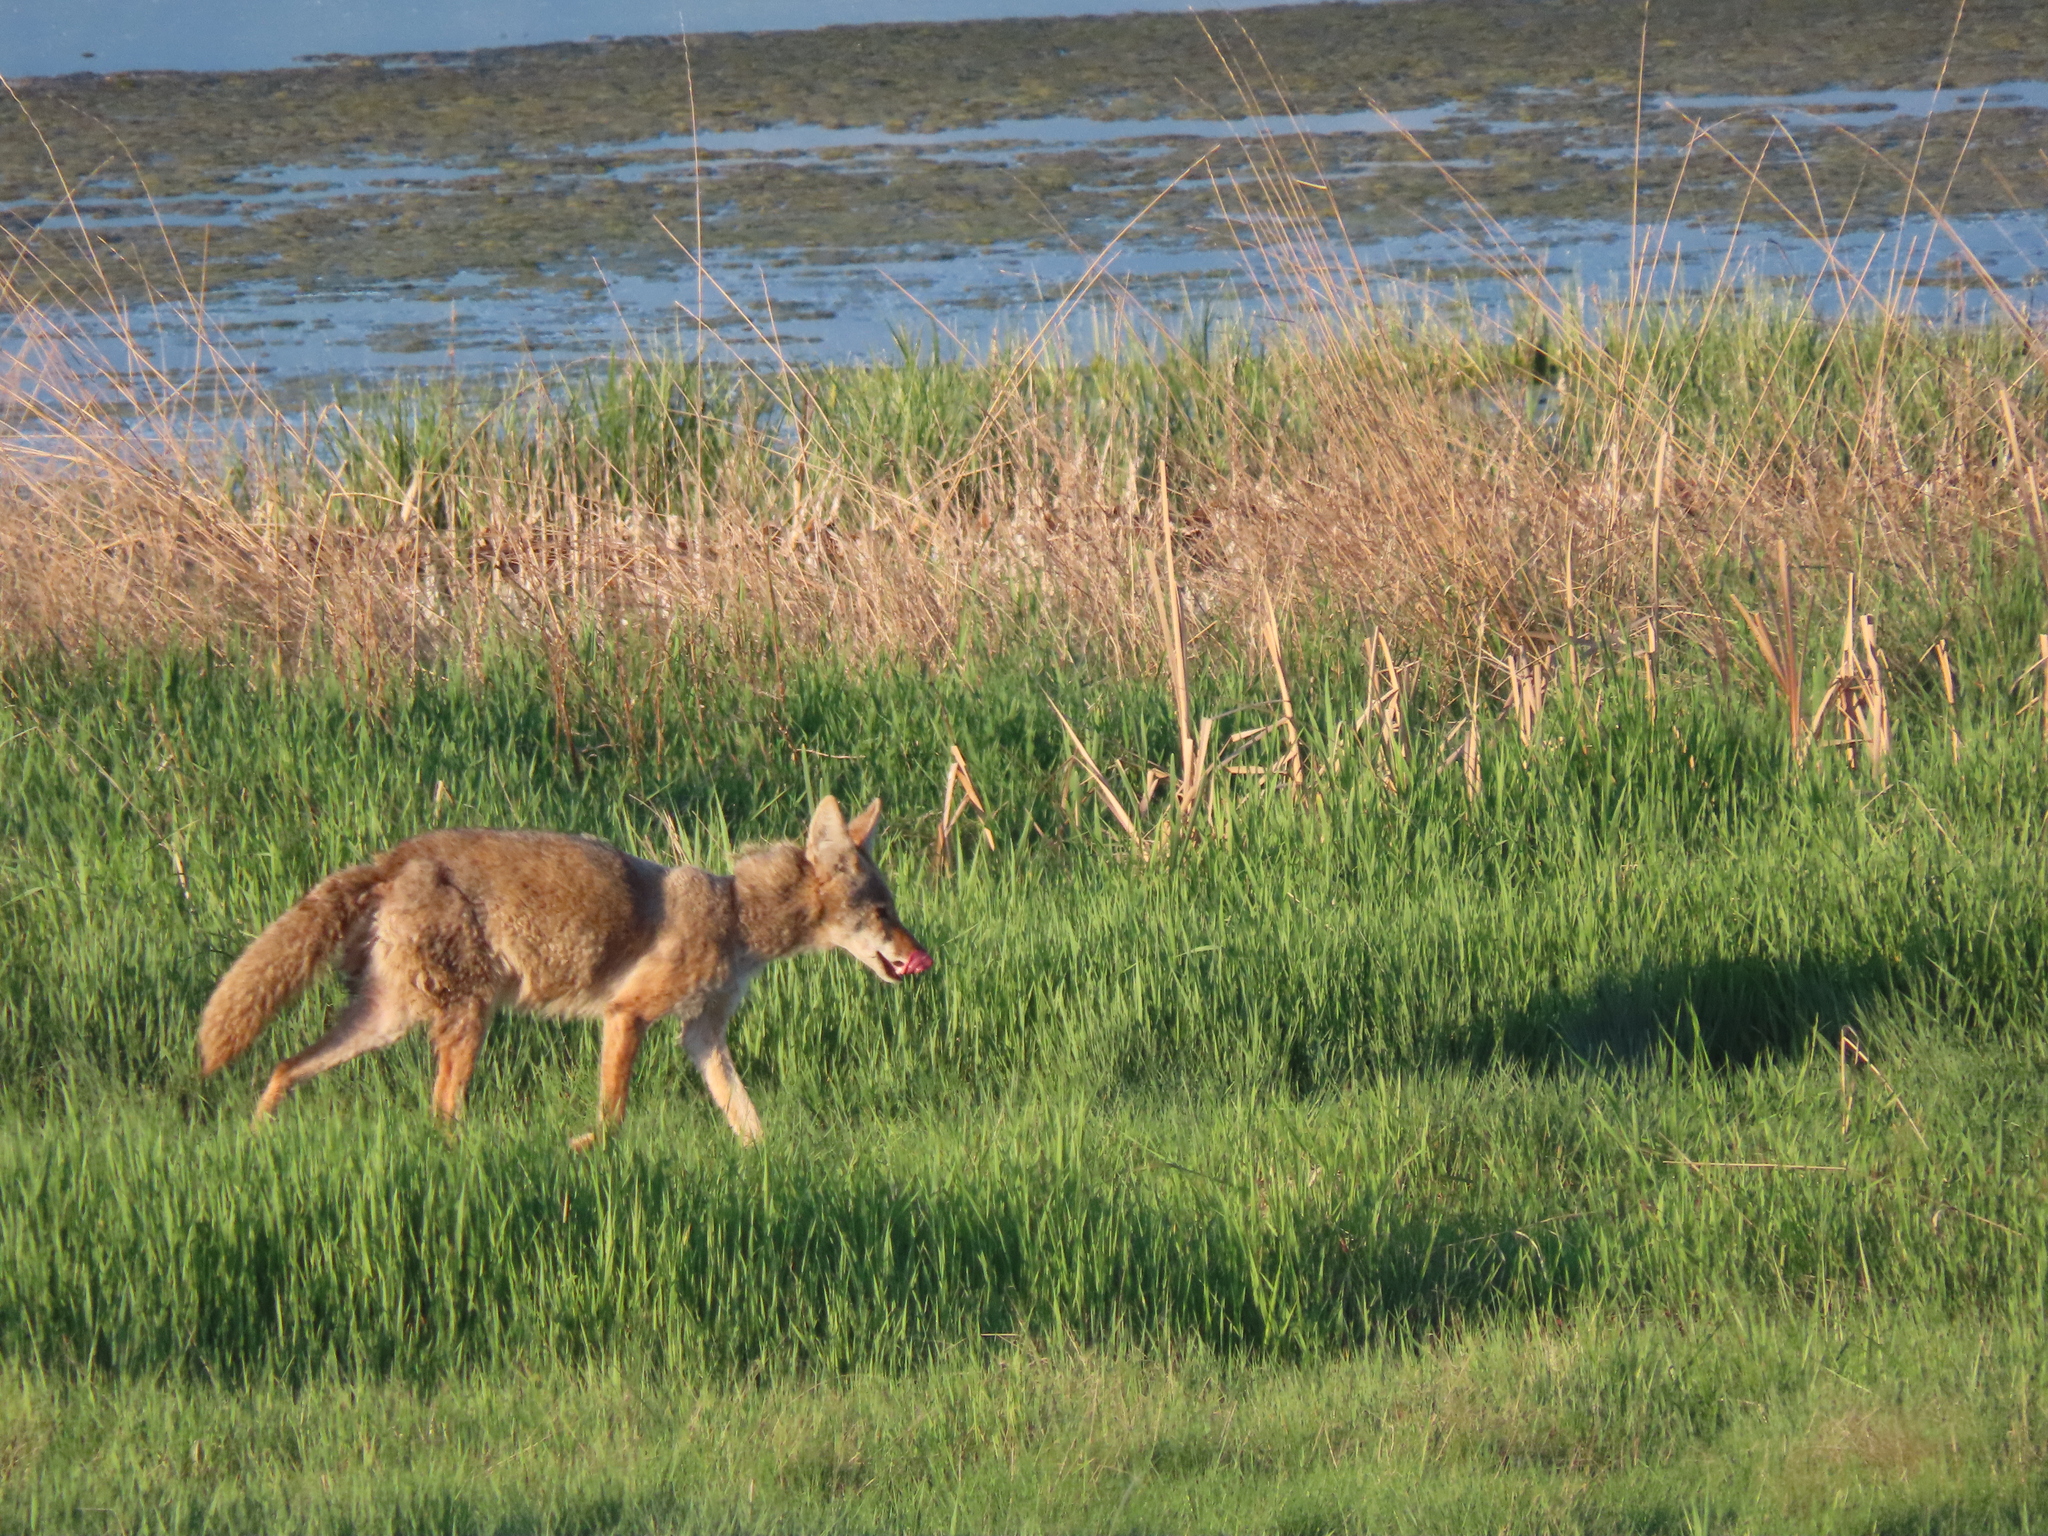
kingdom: Animalia
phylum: Chordata
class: Mammalia
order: Carnivora
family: Canidae
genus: Canis
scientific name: Canis latrans
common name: Coyote
